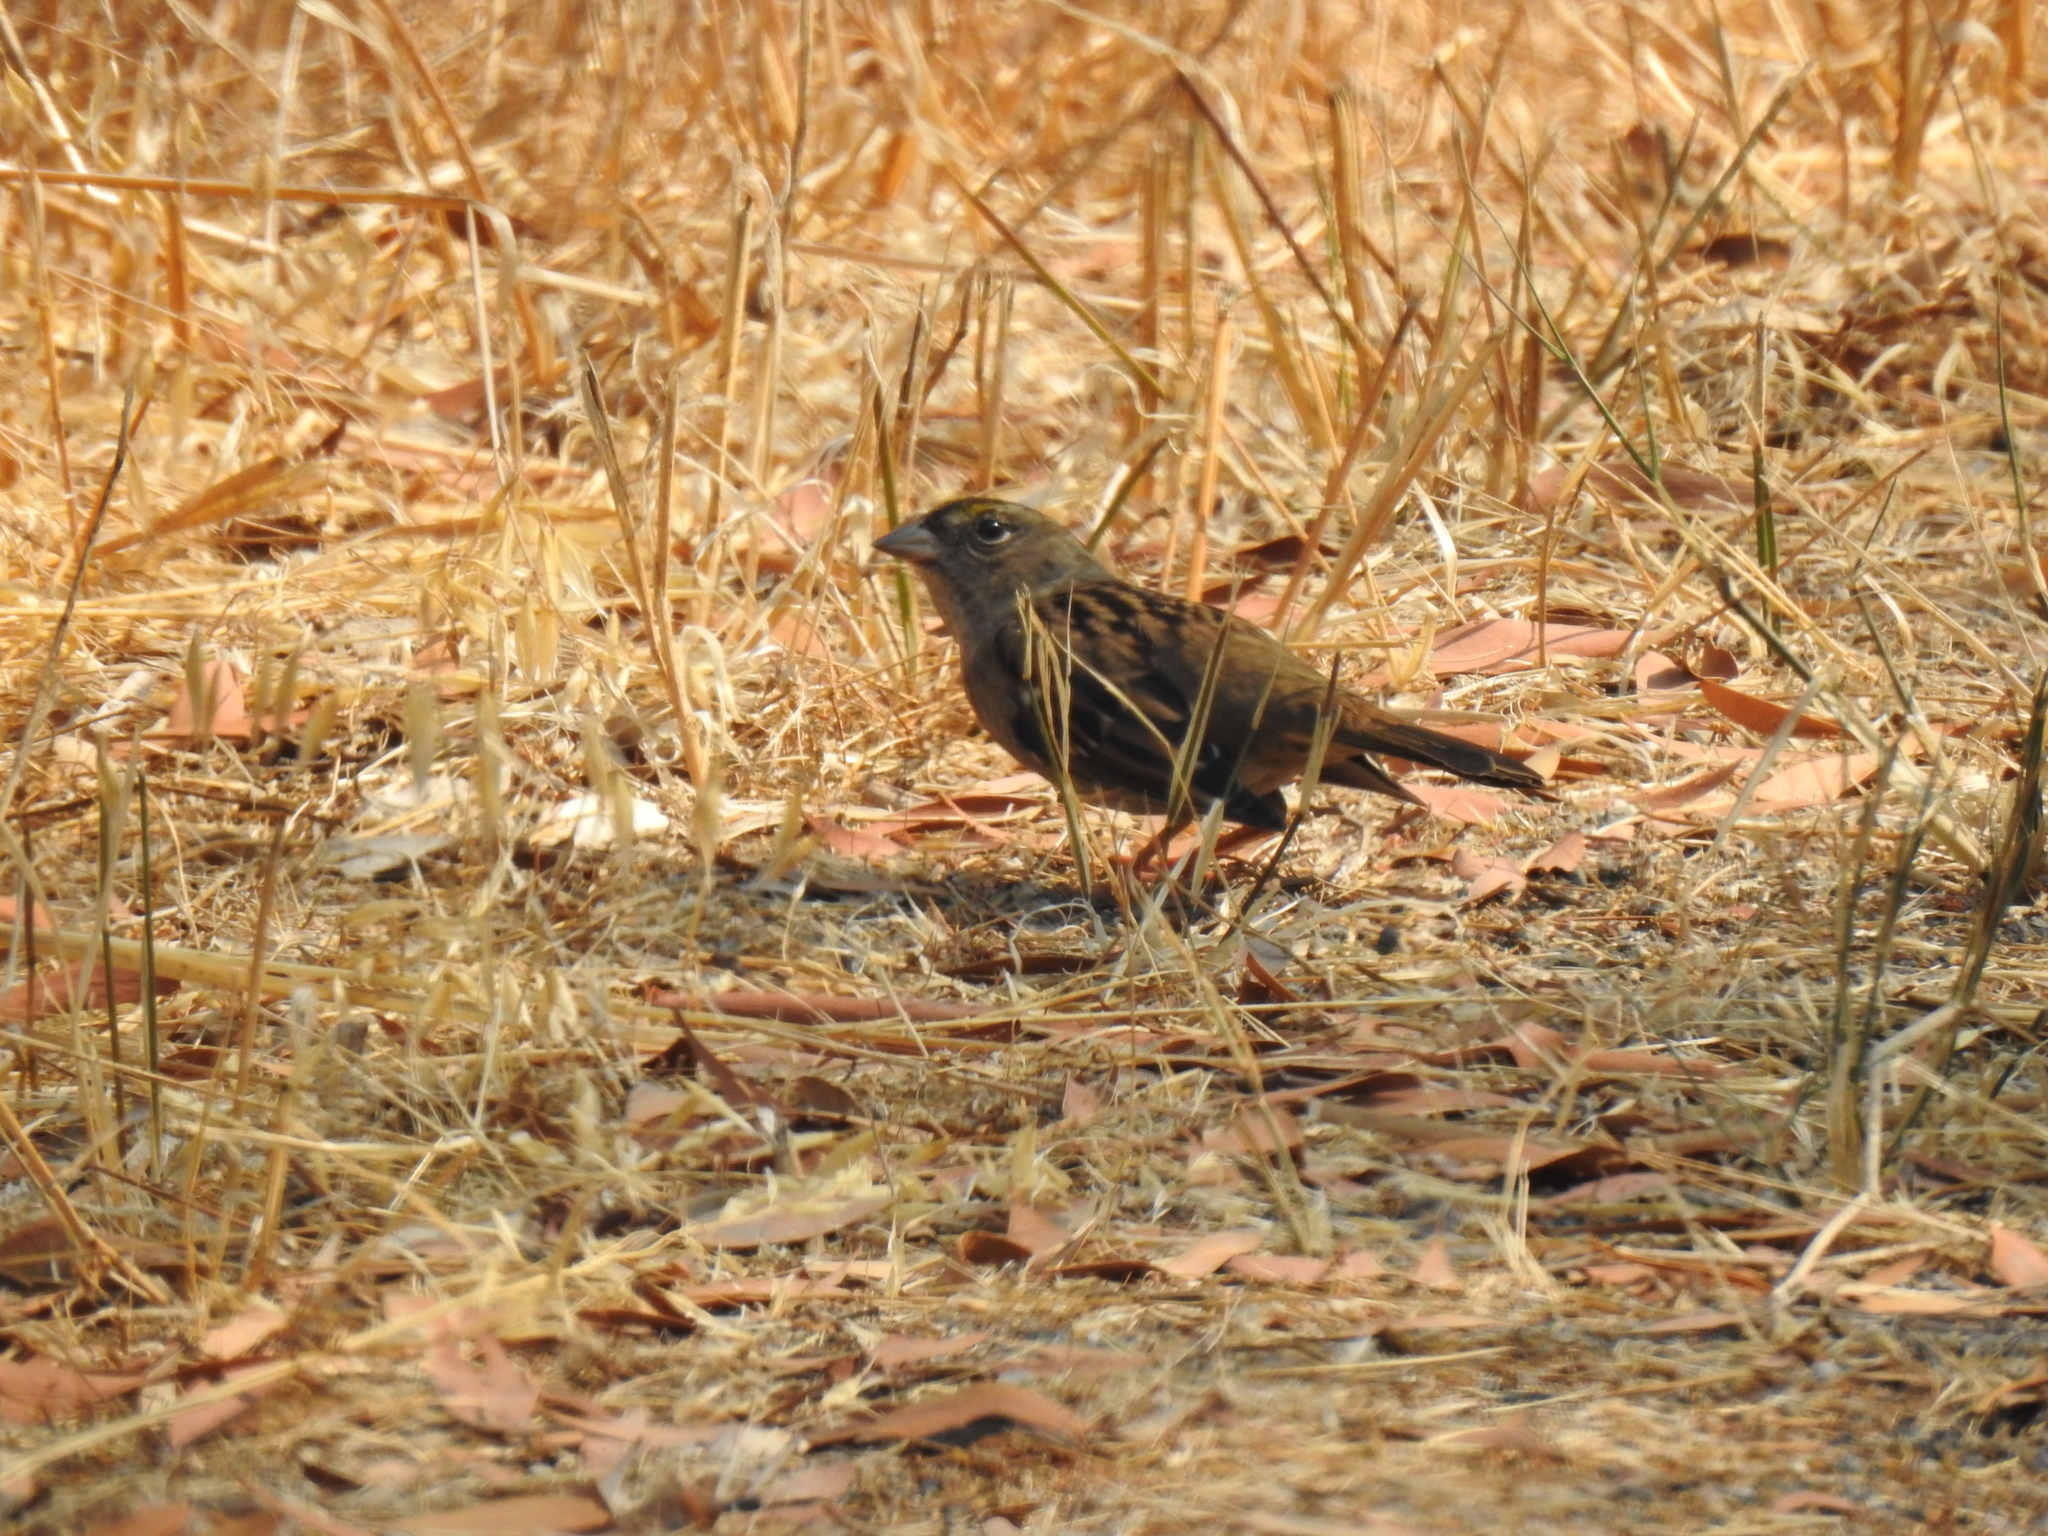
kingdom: Animalia
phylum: Chordata
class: Aves
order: Passeriformes
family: Passerellidae
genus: Zonotrichia
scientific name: Zonotrichia atricapilla
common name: Golden-crowned sparrow
